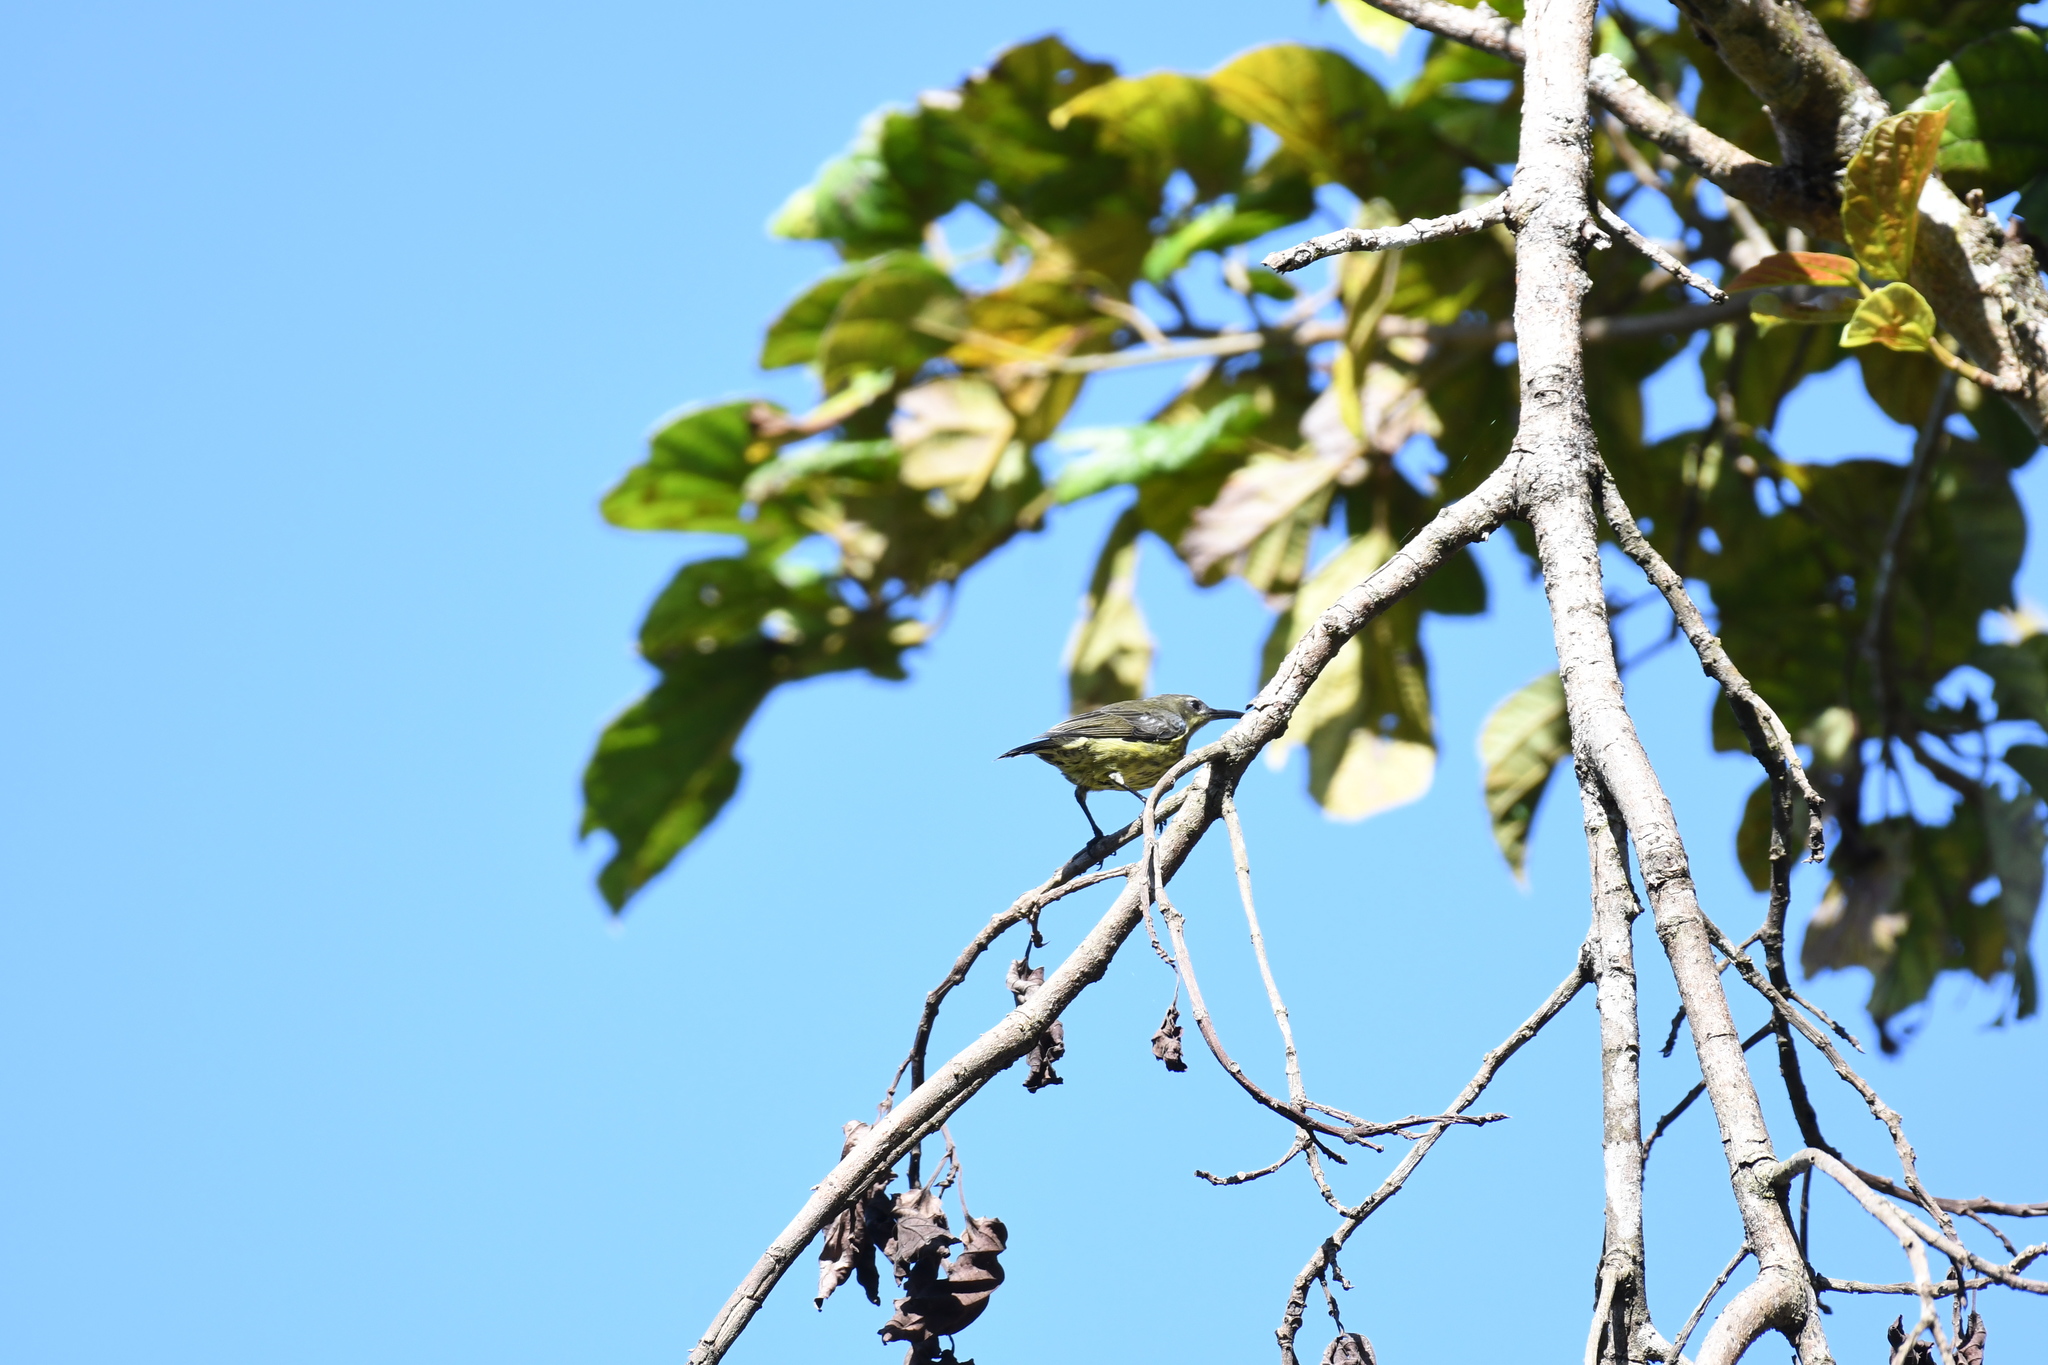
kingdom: Animalia
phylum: Chordata
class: Aves
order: Passeriformes
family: Nectariniidae
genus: Cinnyris
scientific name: Cinnyris notatus
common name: Malagasy green sunbird
